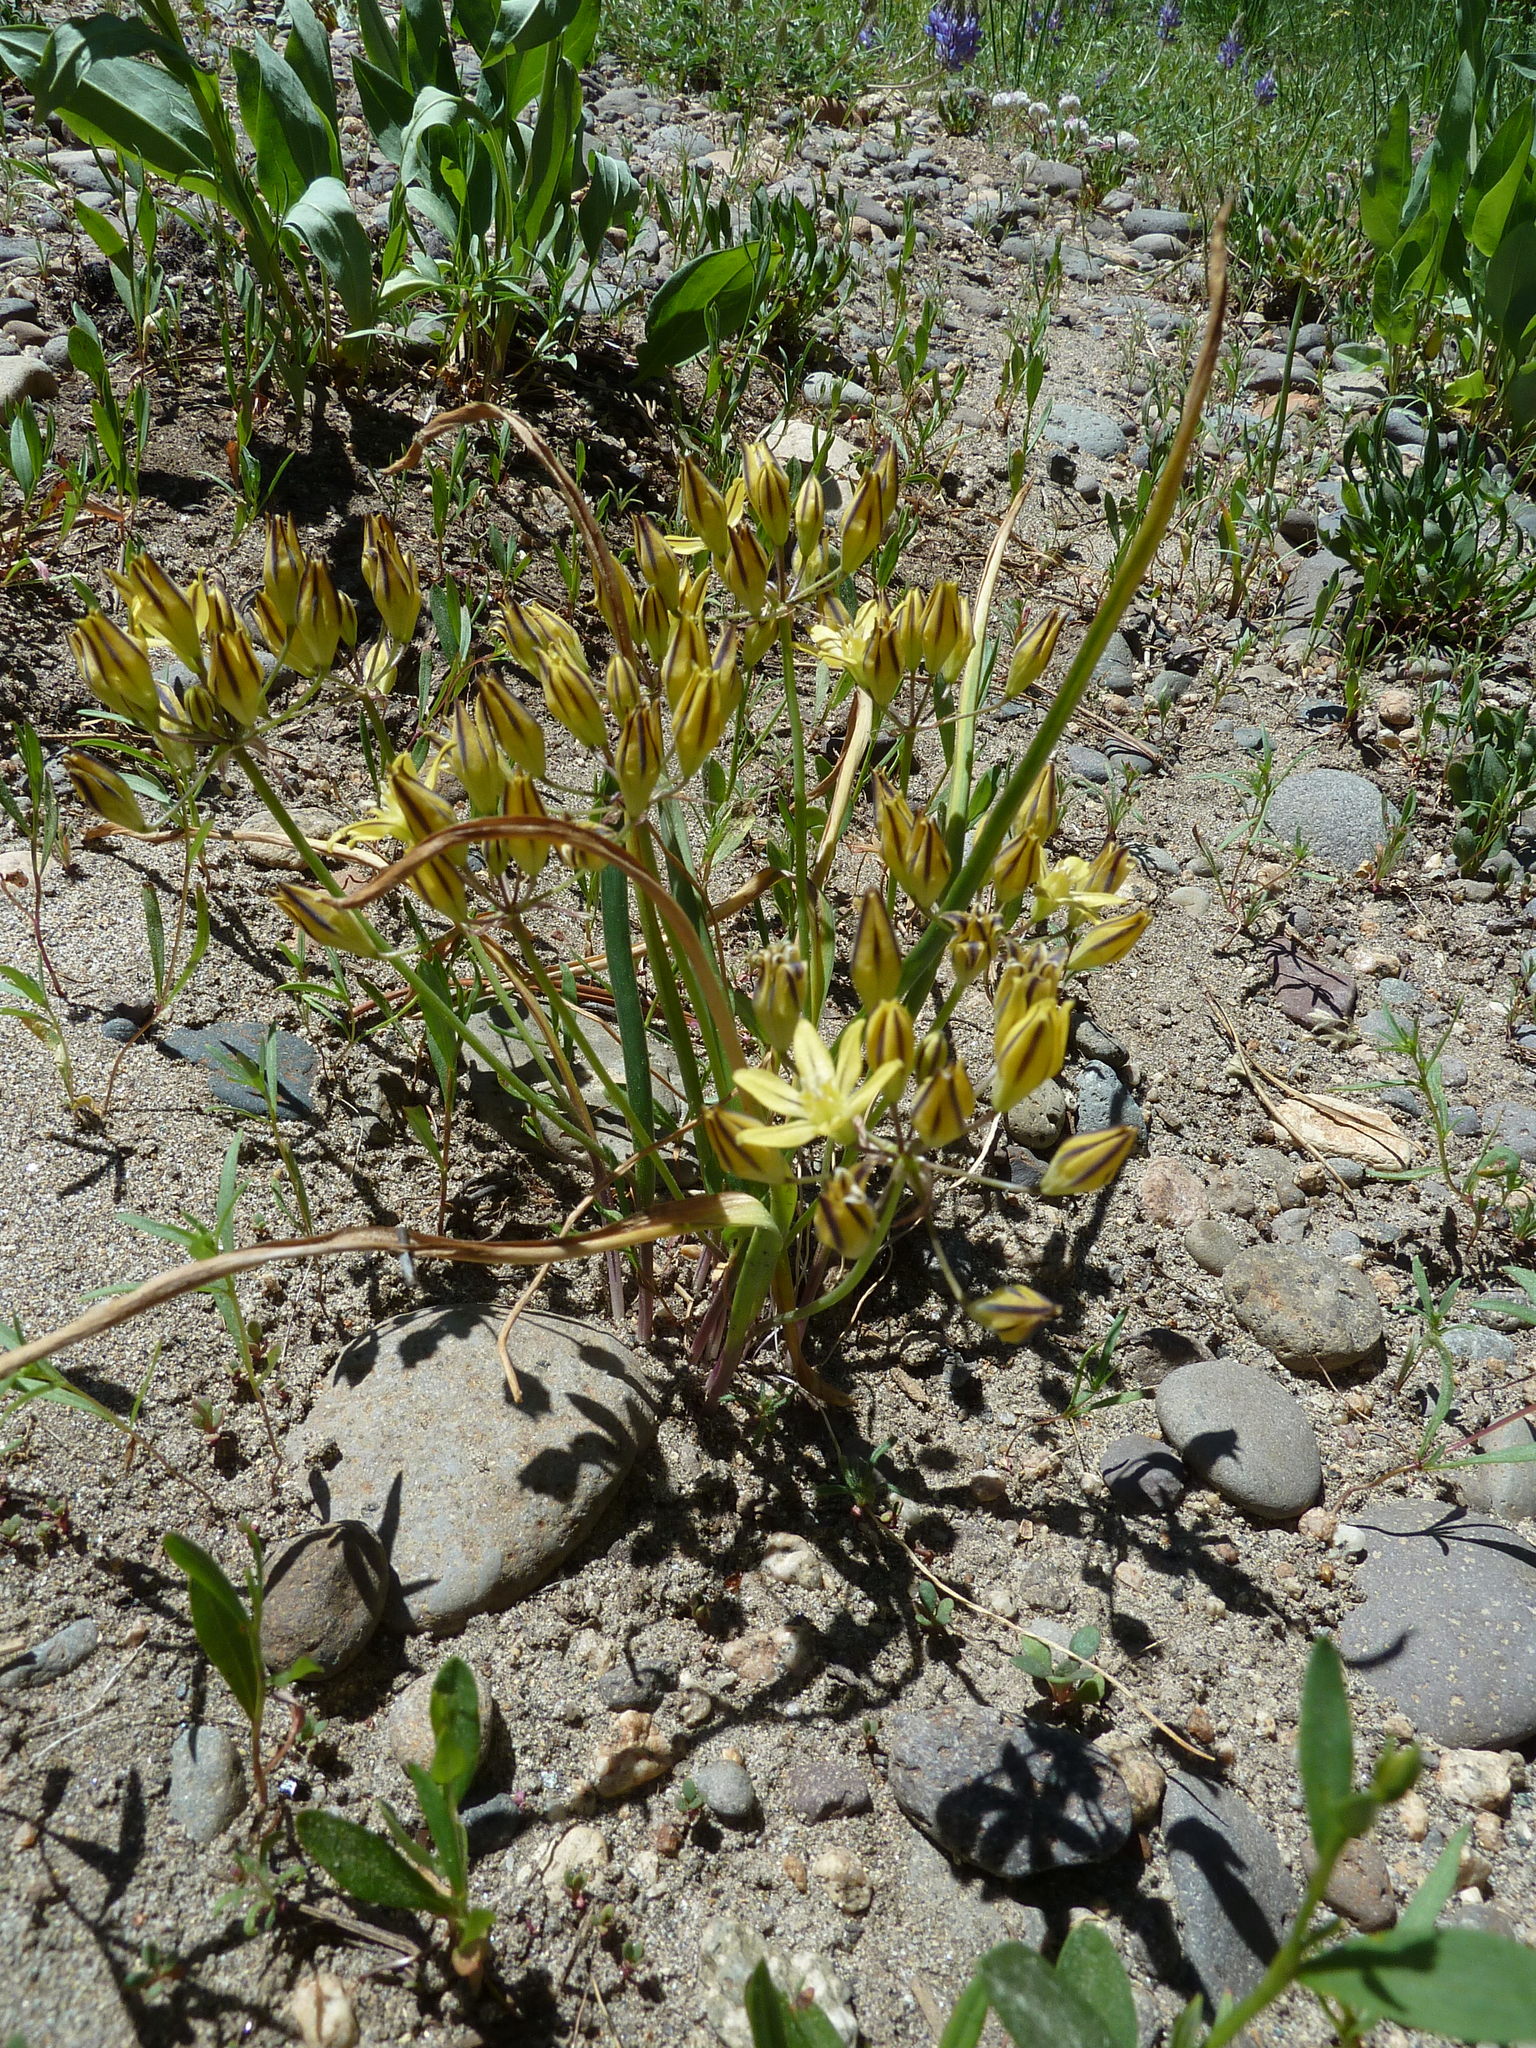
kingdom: Plantae
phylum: Tracheophyta
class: Liliopsida
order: Asparagales
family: Asparagaceae
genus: Triteleia
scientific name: Triteleia ixioides
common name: Yellow-brodiaea
